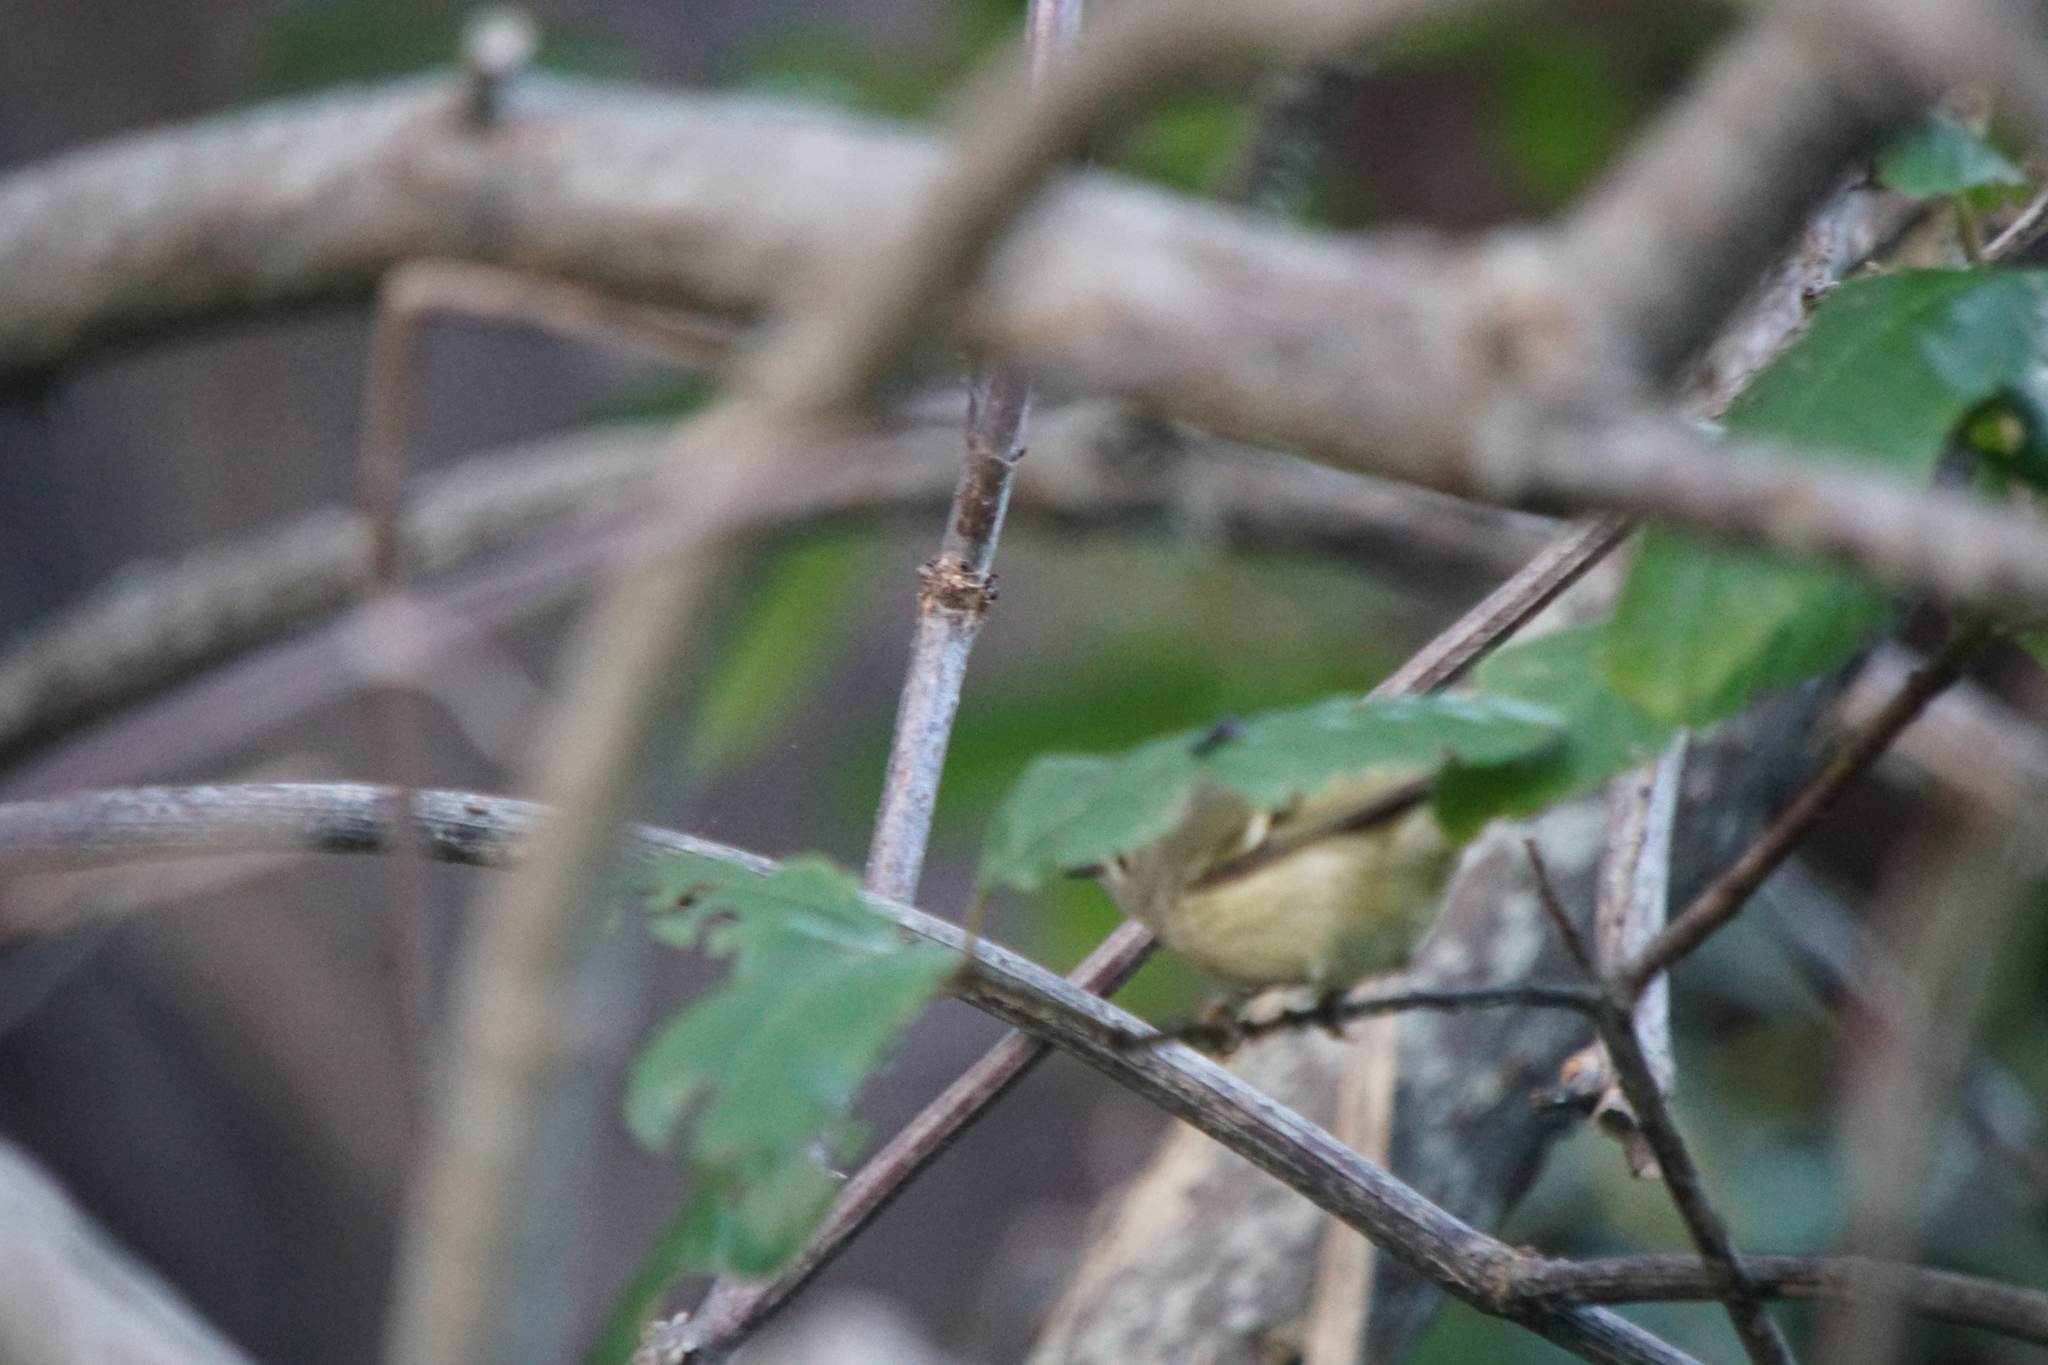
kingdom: Animalia
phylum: Chordata
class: Aves
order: Passeriformes
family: Regulidae
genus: Regulus
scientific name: Regulus calendula
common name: Ruby-crowned kinglet
